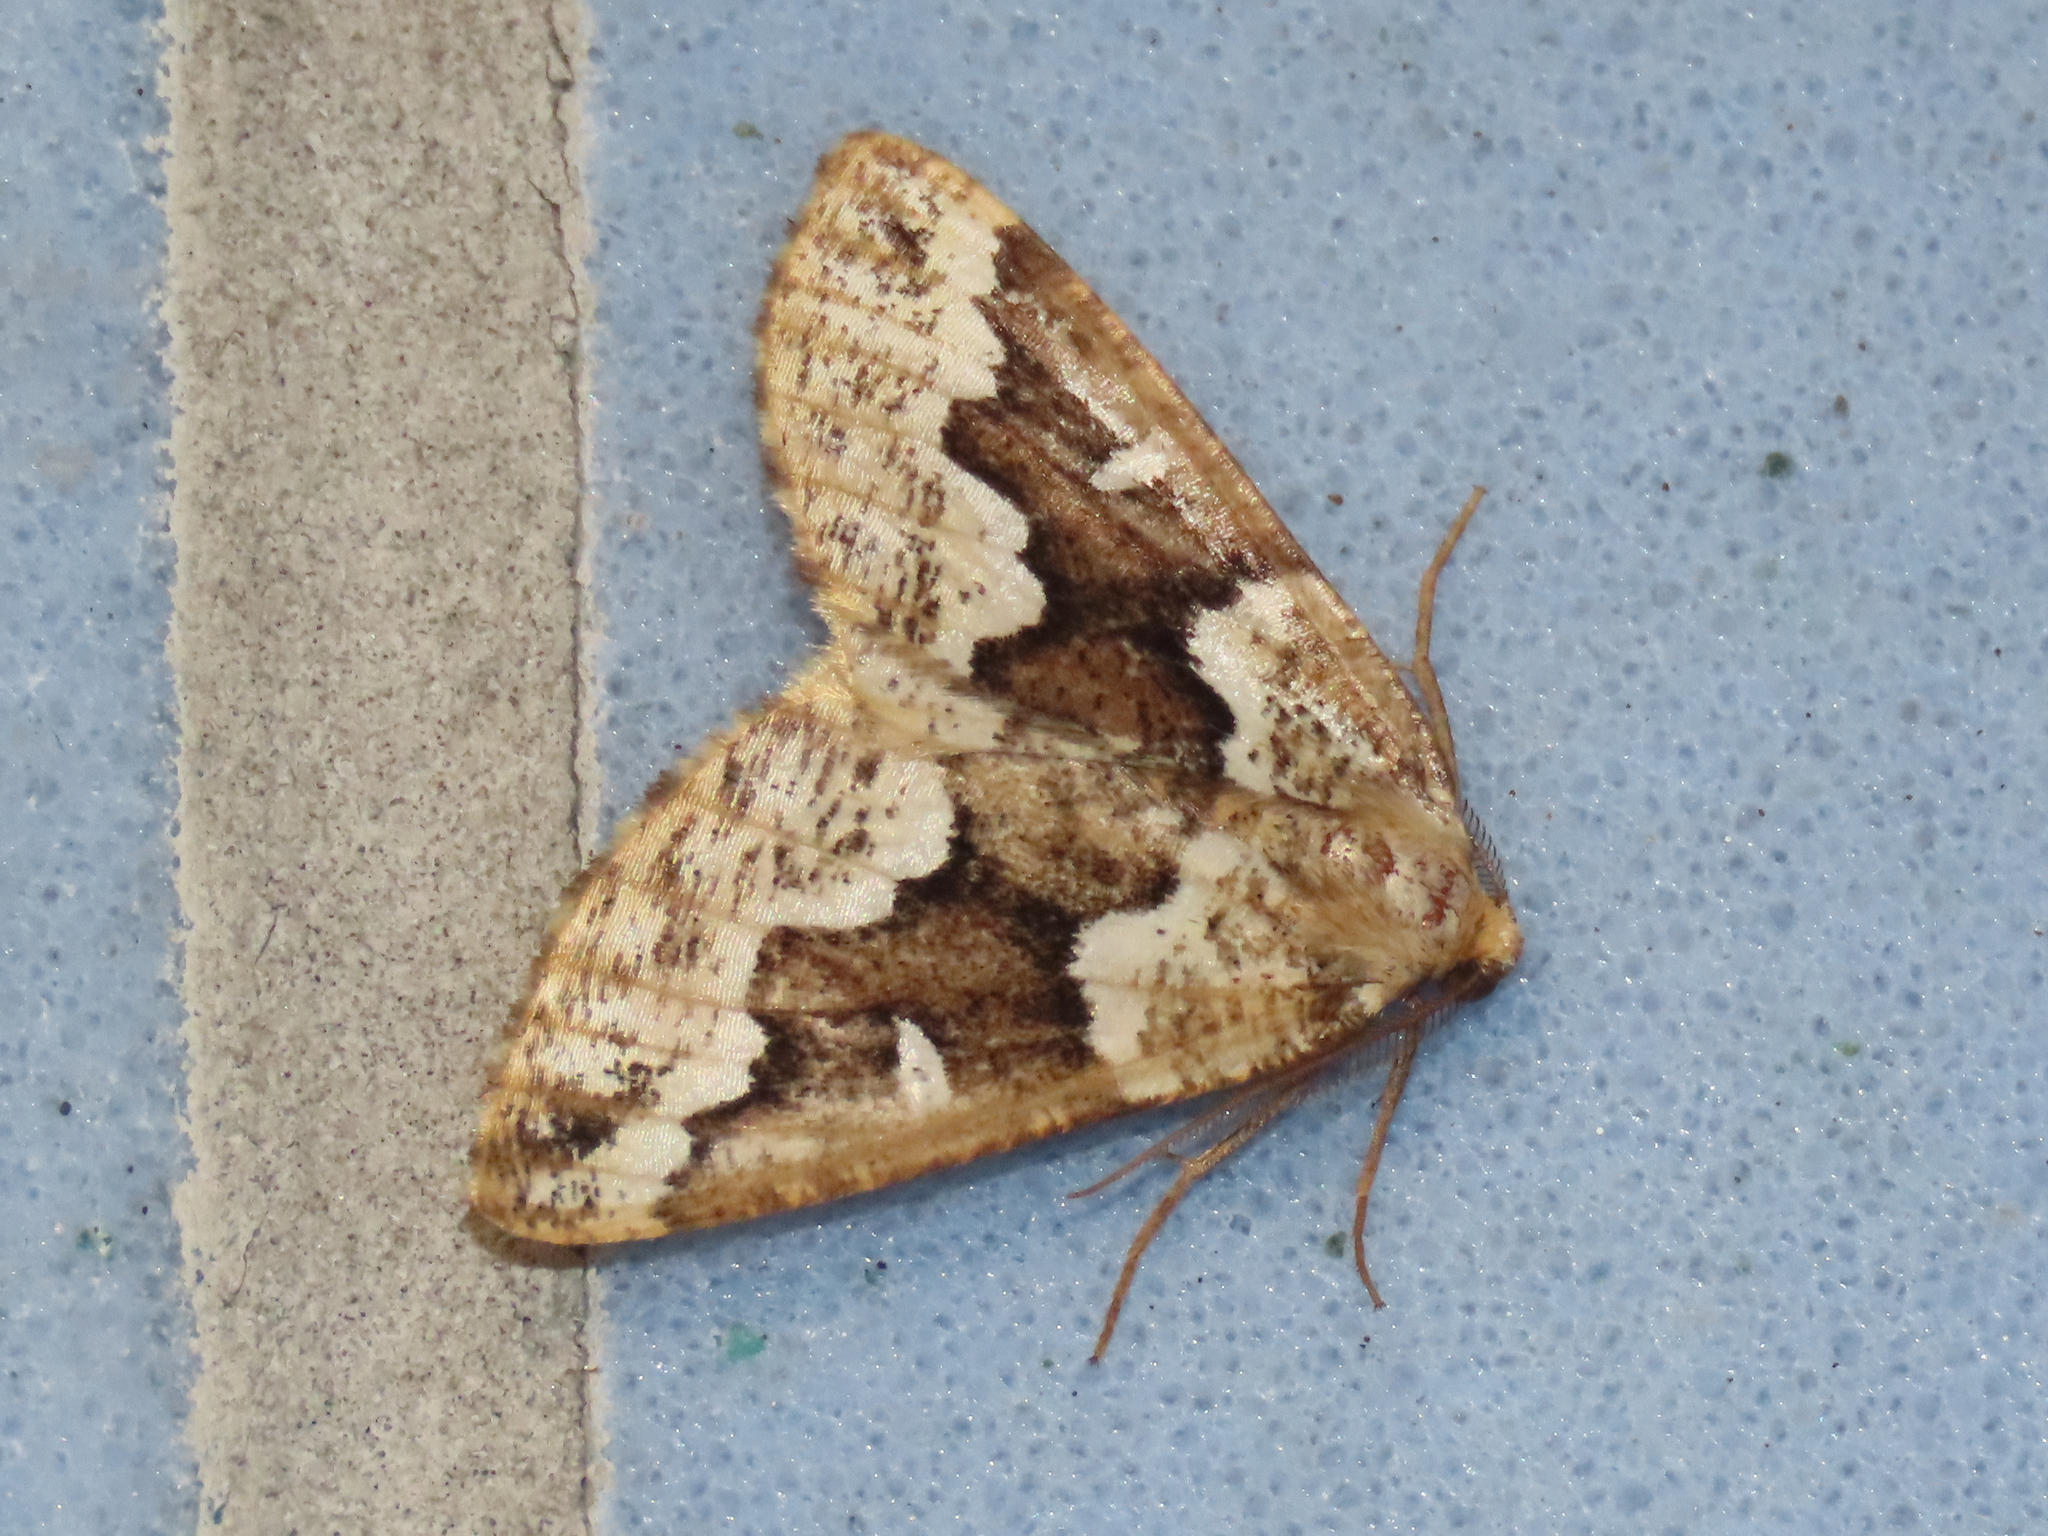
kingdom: Animalia
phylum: Arthropoda
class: Insecta
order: Lepidoptera
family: Geometridae
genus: Caripeta
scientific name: Caripeta divisata
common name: Gray spruce looper
